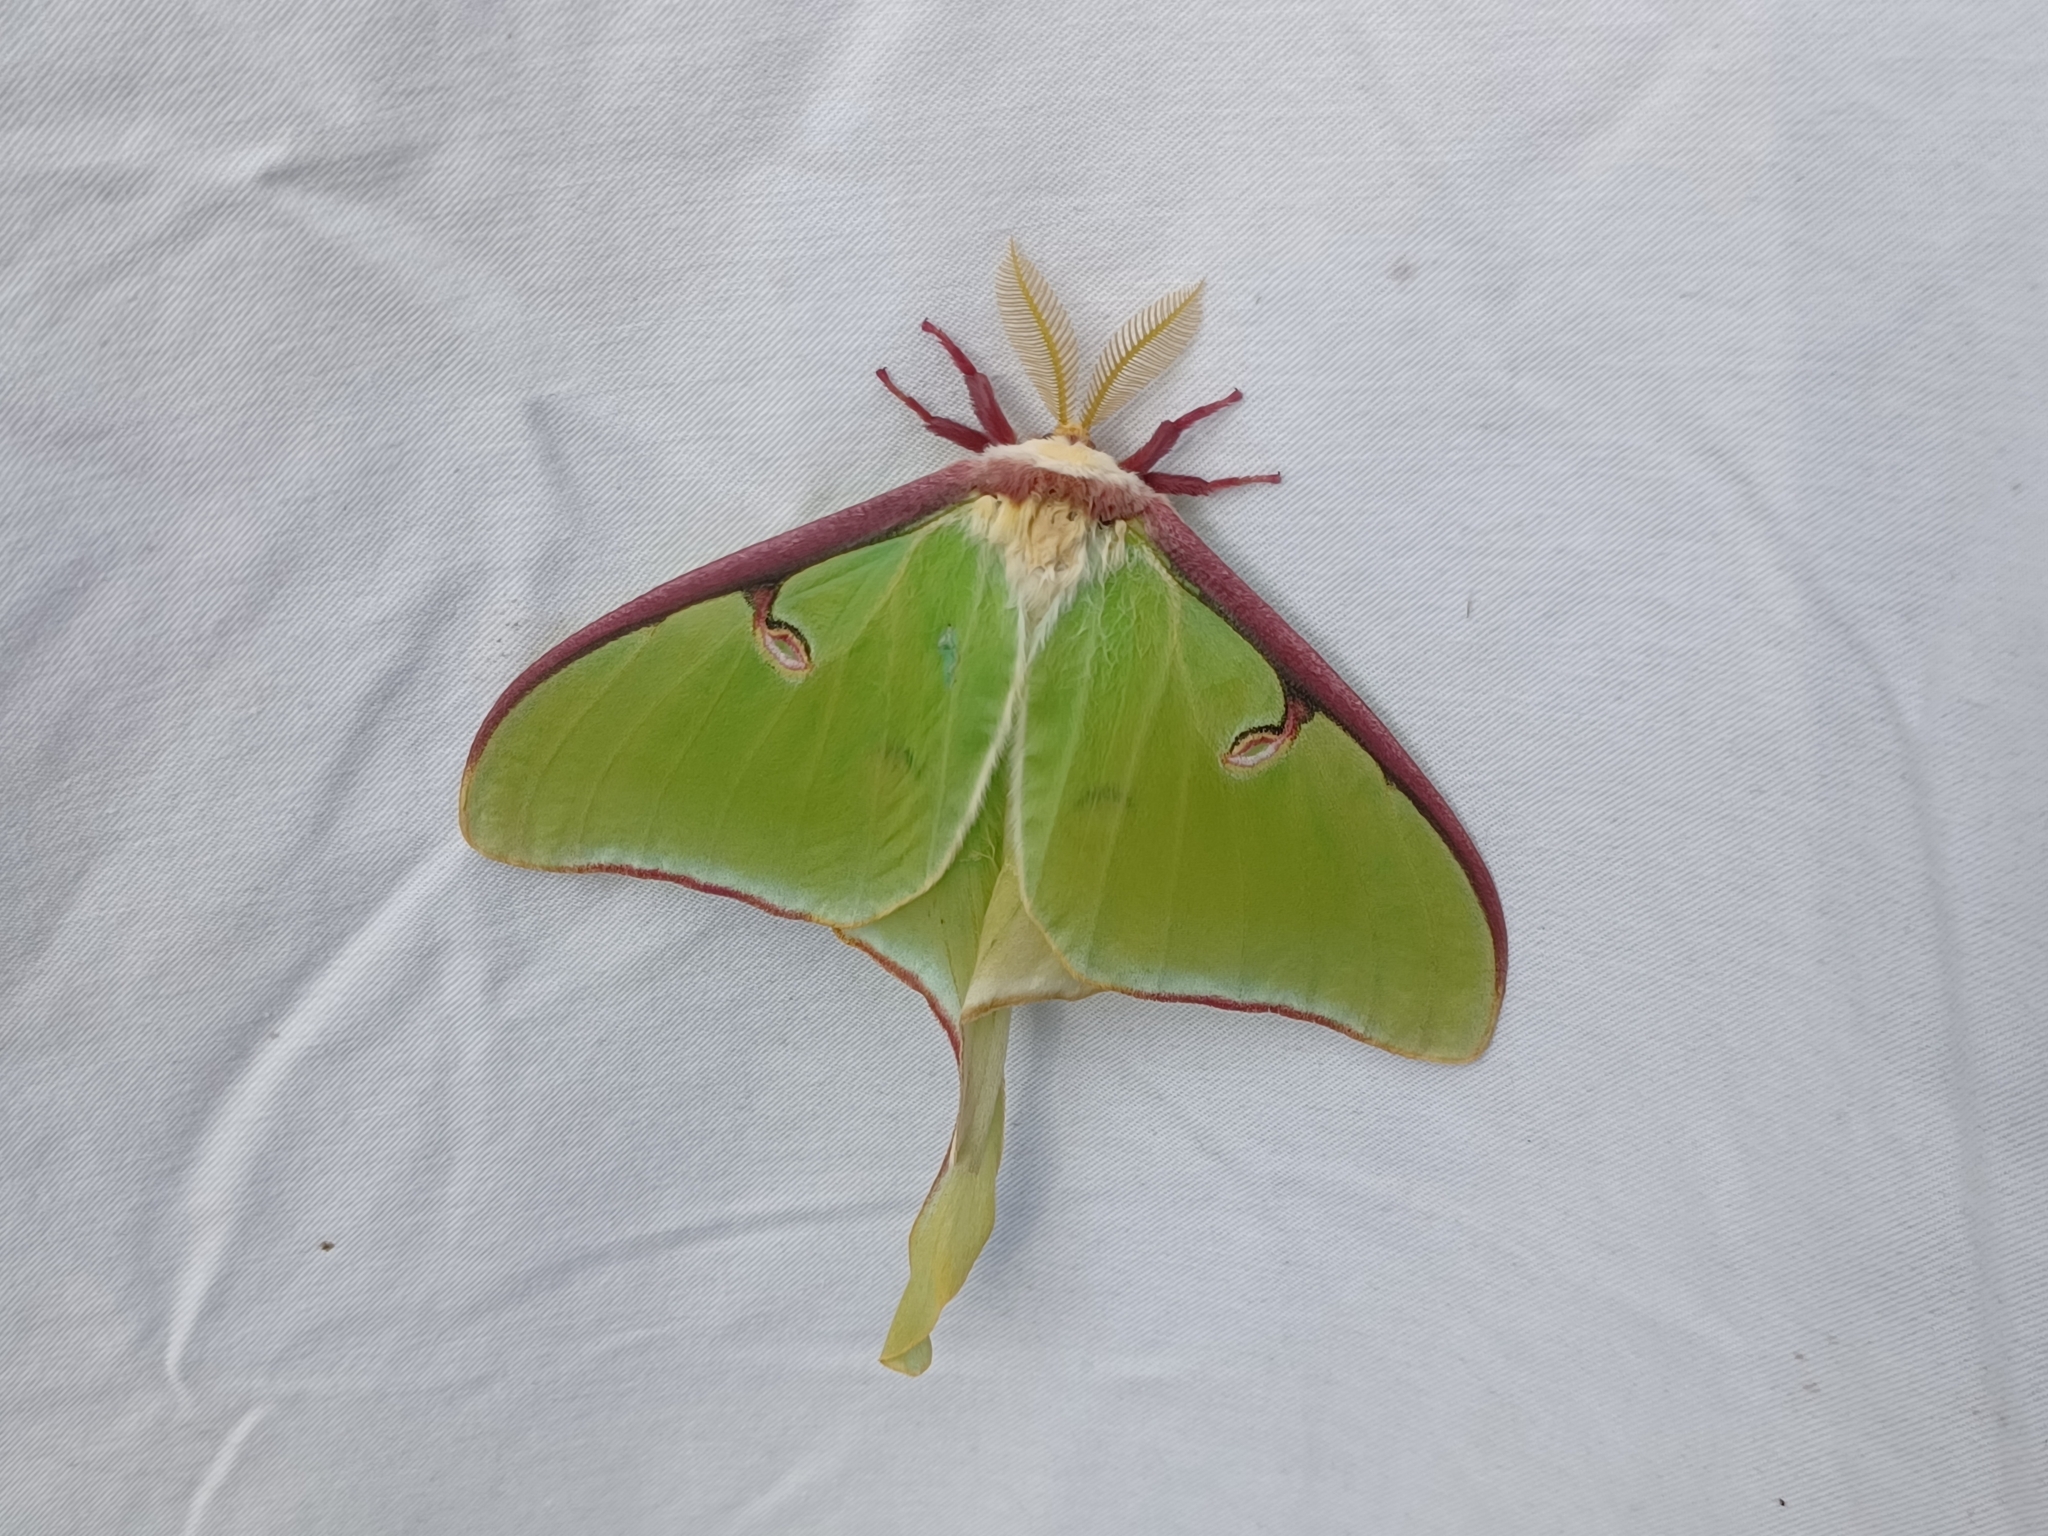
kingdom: Animalia
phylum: Arthropoda
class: Insecta
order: Lepidoptera
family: Saturniidae
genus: Actias
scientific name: Actias luna
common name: Luna moth
